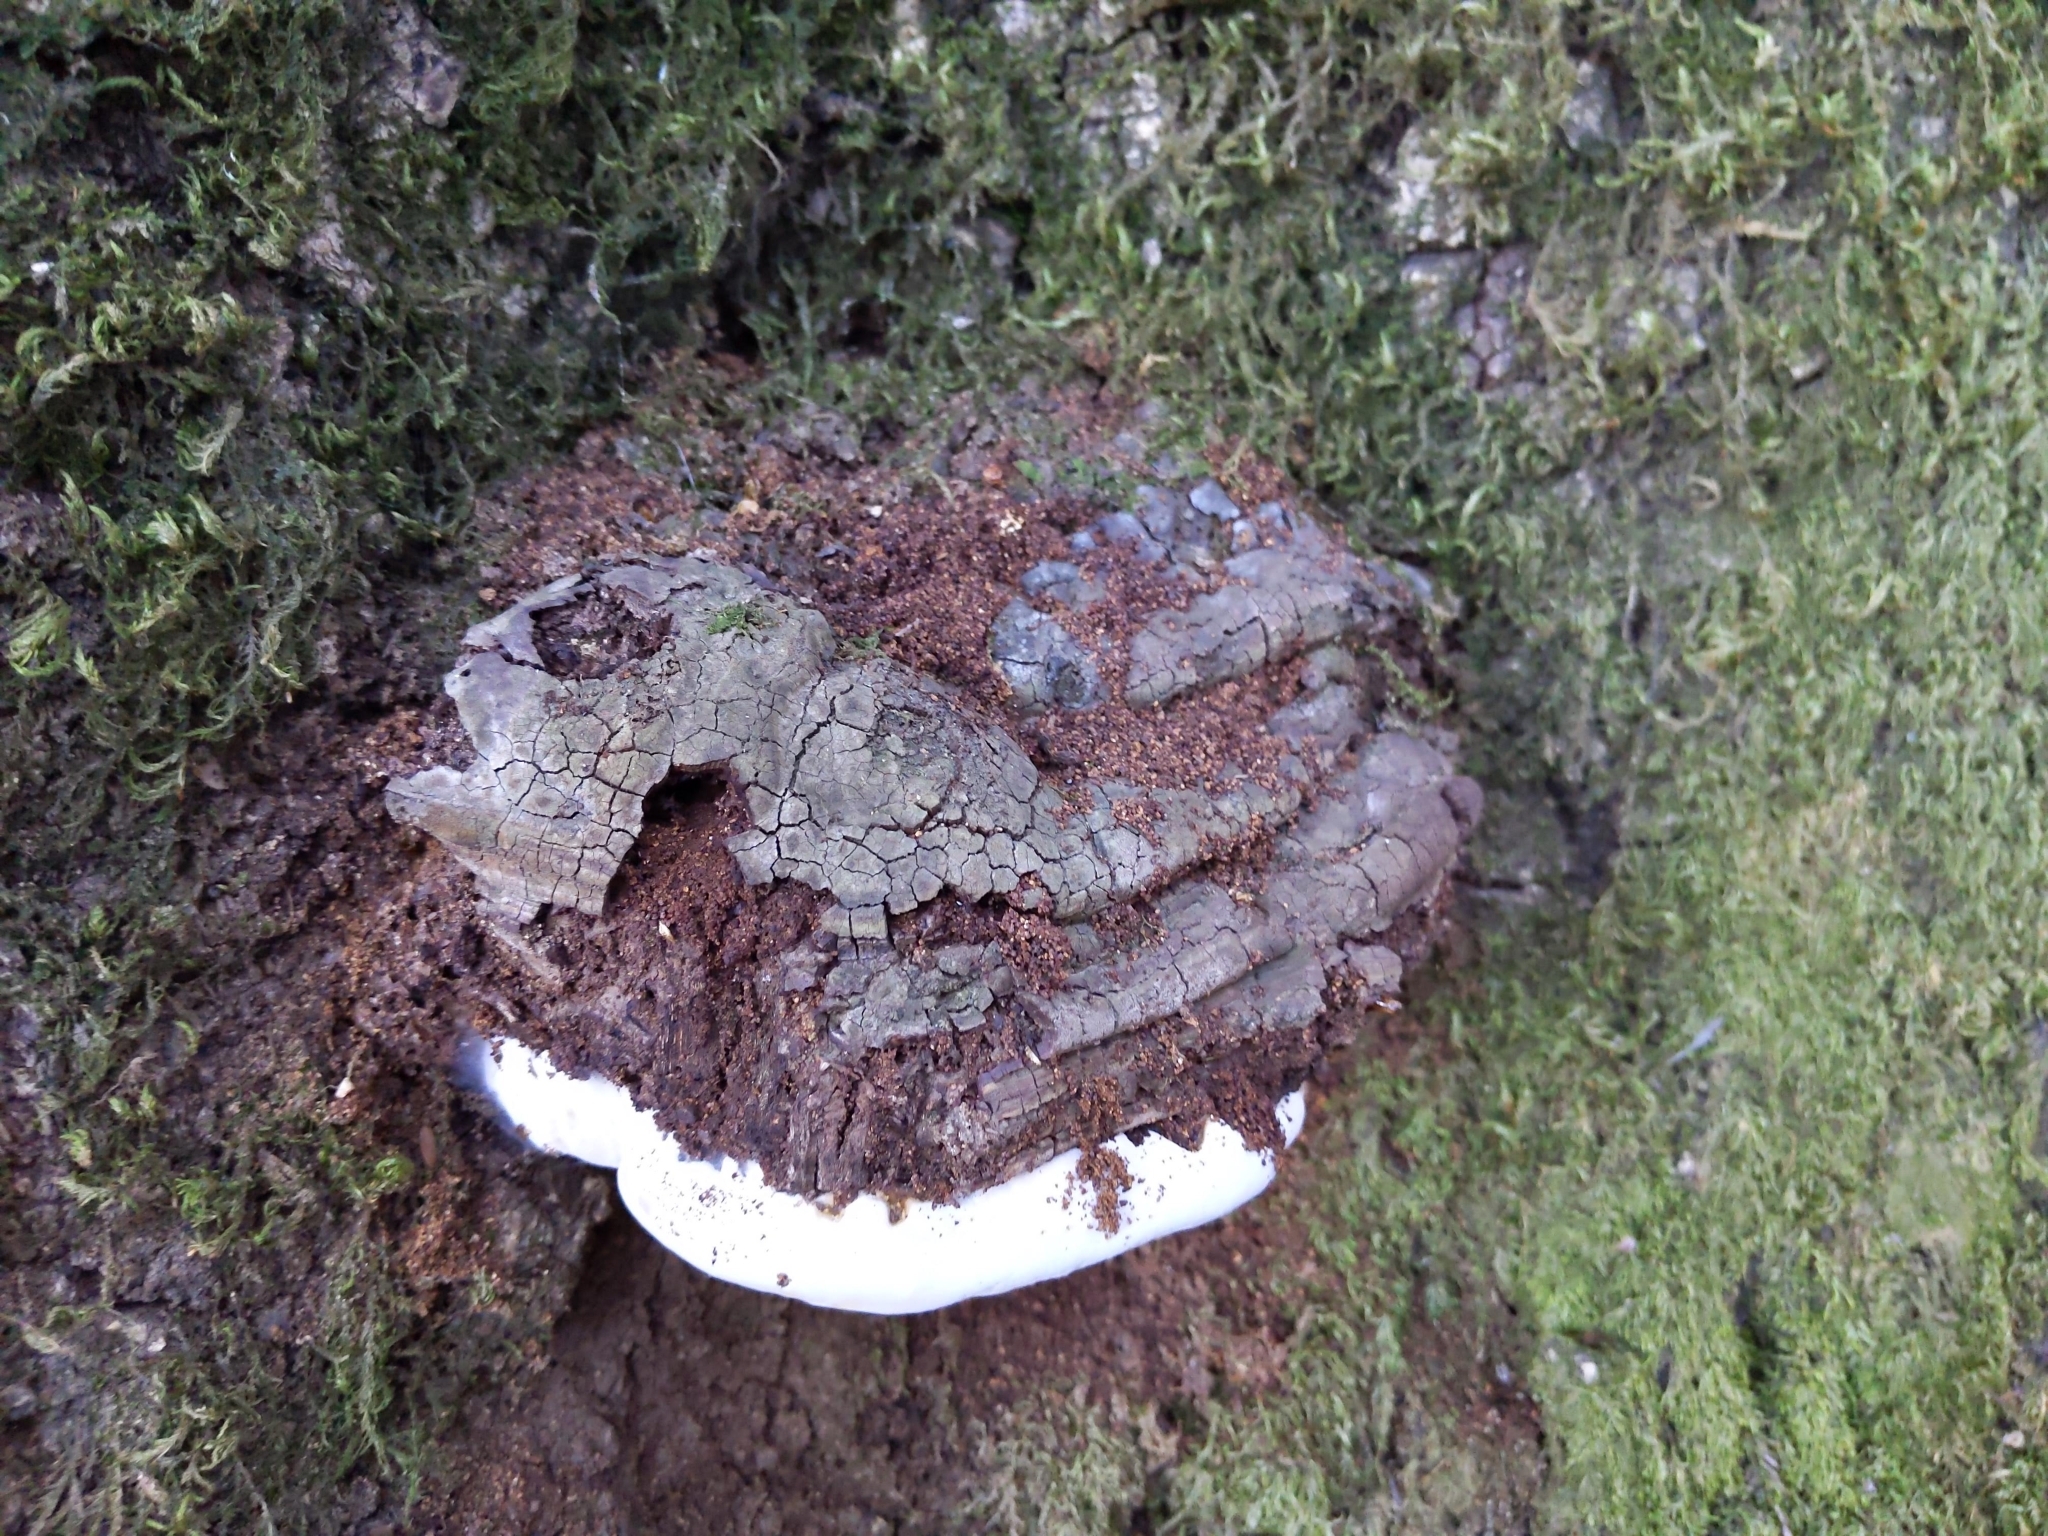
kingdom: Fungi
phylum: Basidiomycota
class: Agaricomycetes
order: Polyporales
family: Polyporaceae
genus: Ganoderma
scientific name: Ganoderma brownii
